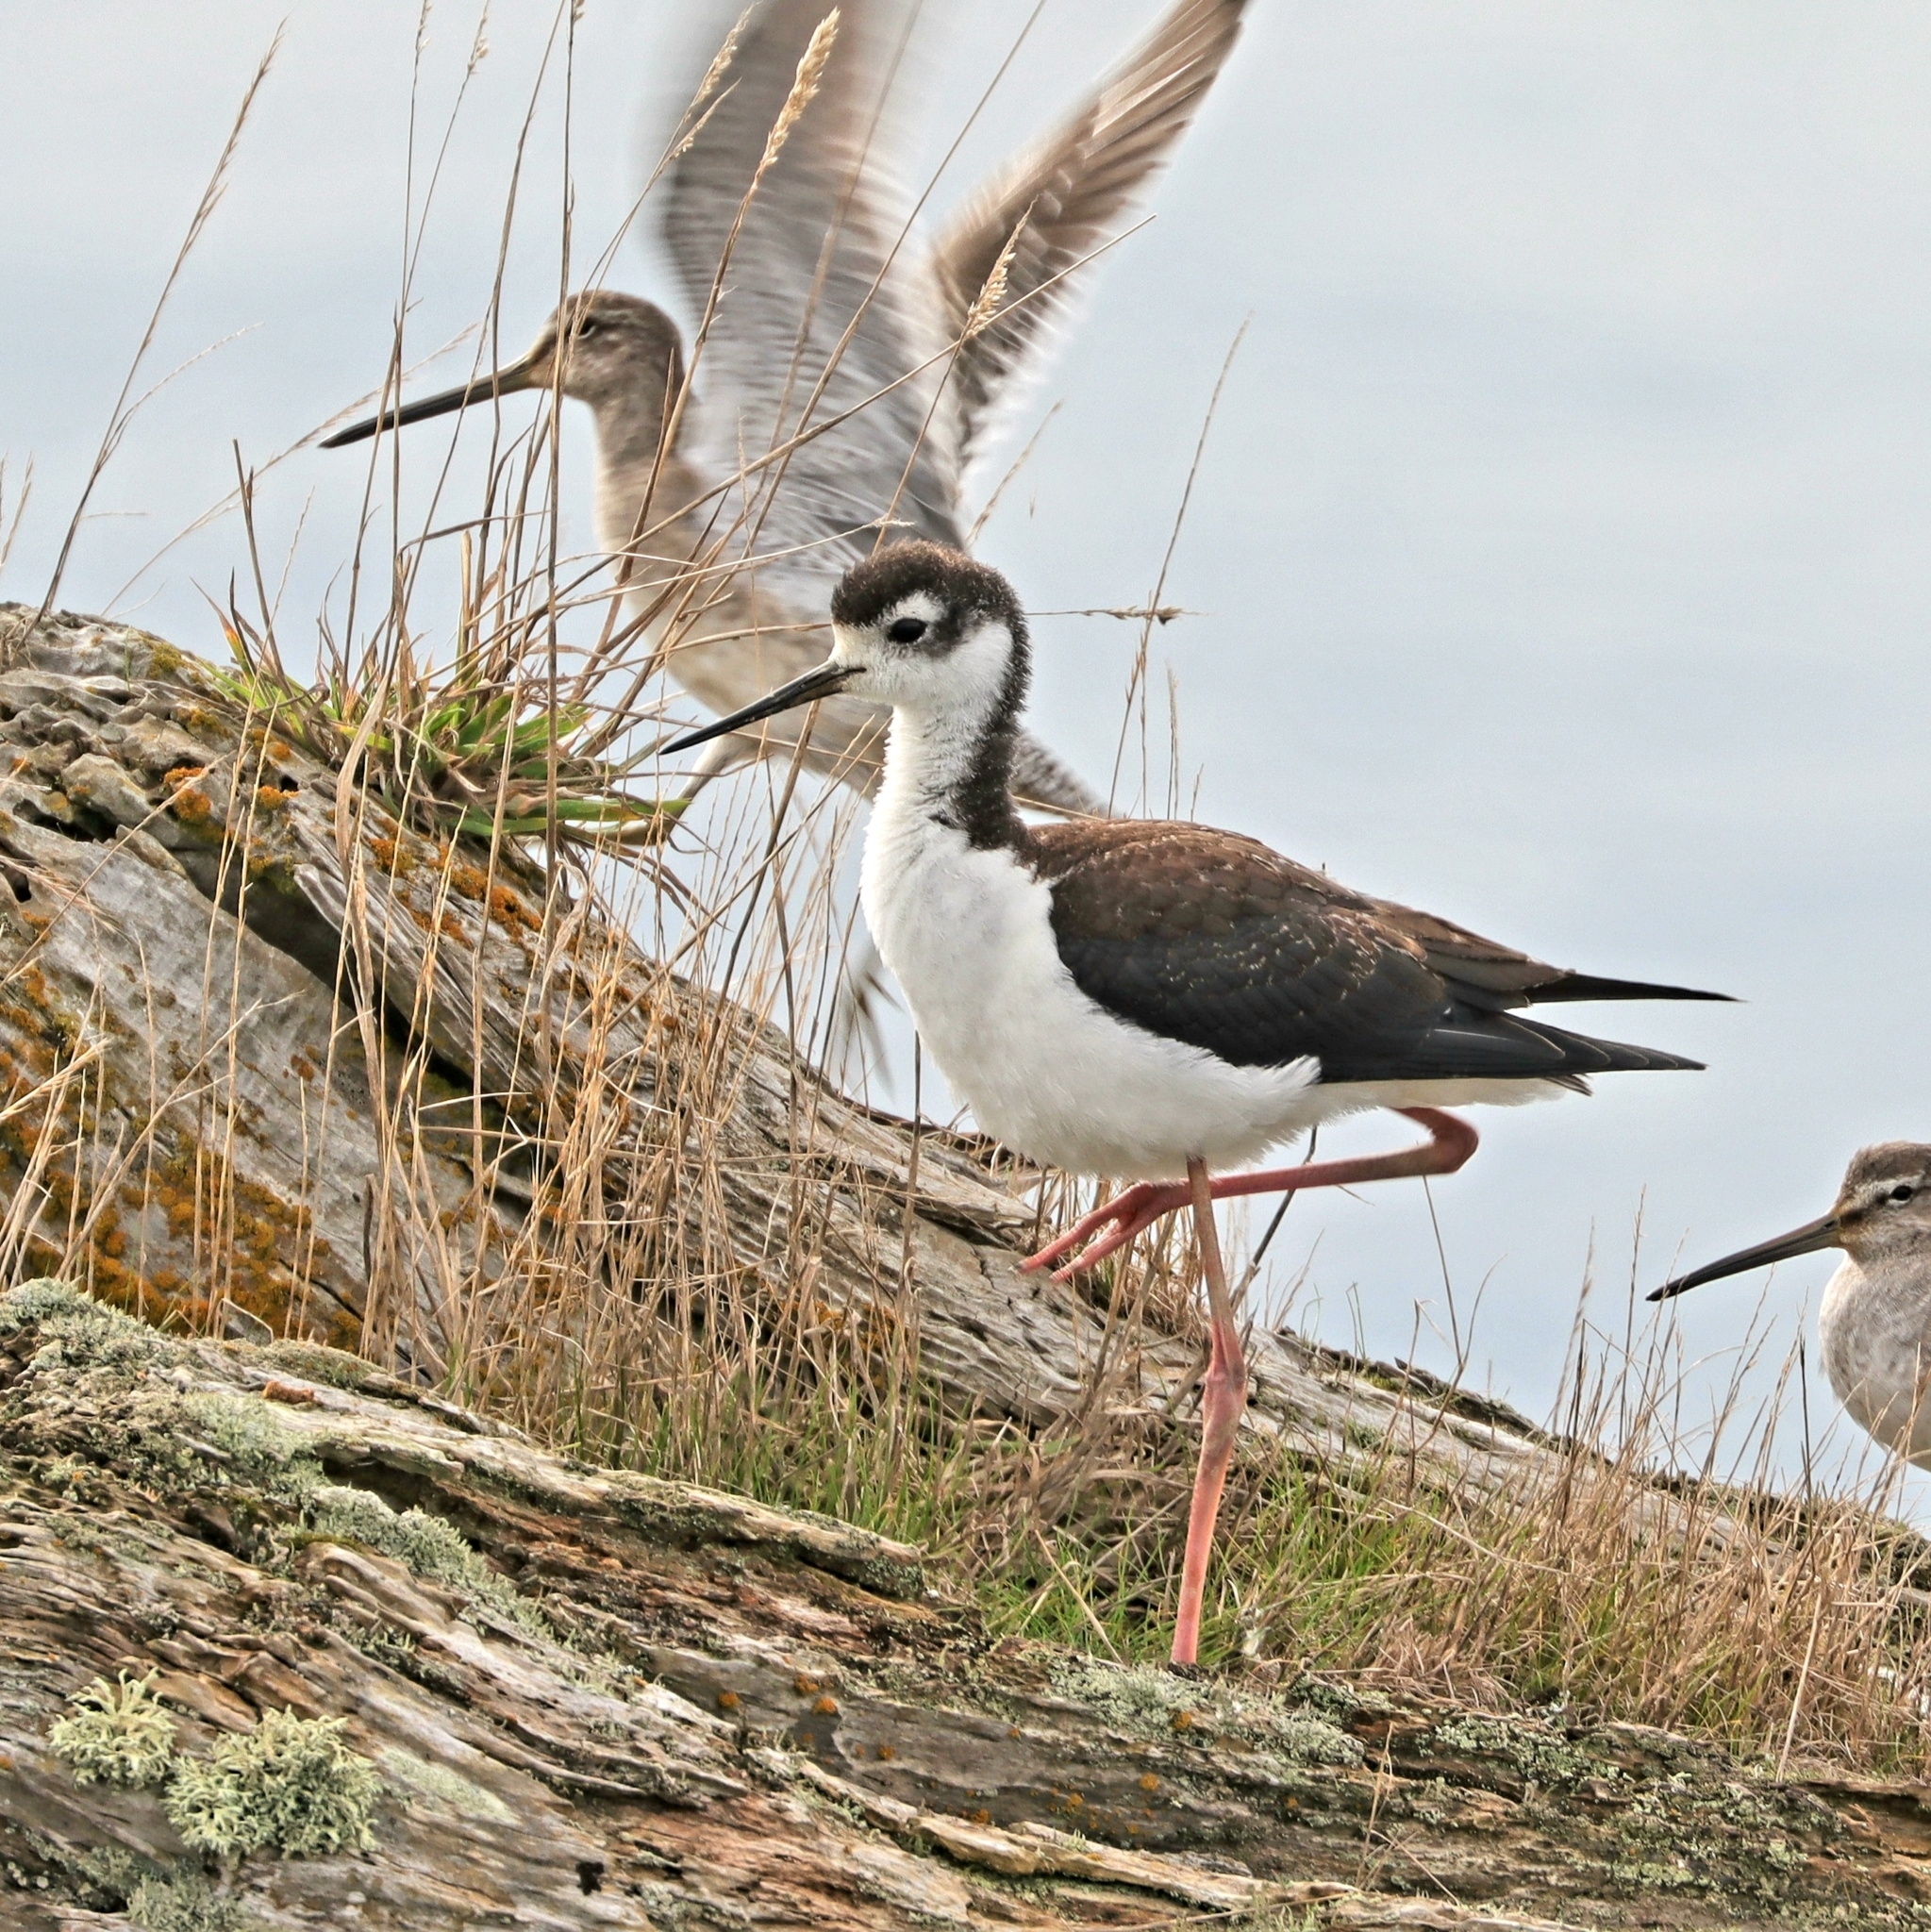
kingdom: Animalia
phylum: Chordata
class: Aves
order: Charadriiformes
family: Recurvirostridae
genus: Himantopus
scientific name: Himantopus mexicanus
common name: Black-necked stilt
